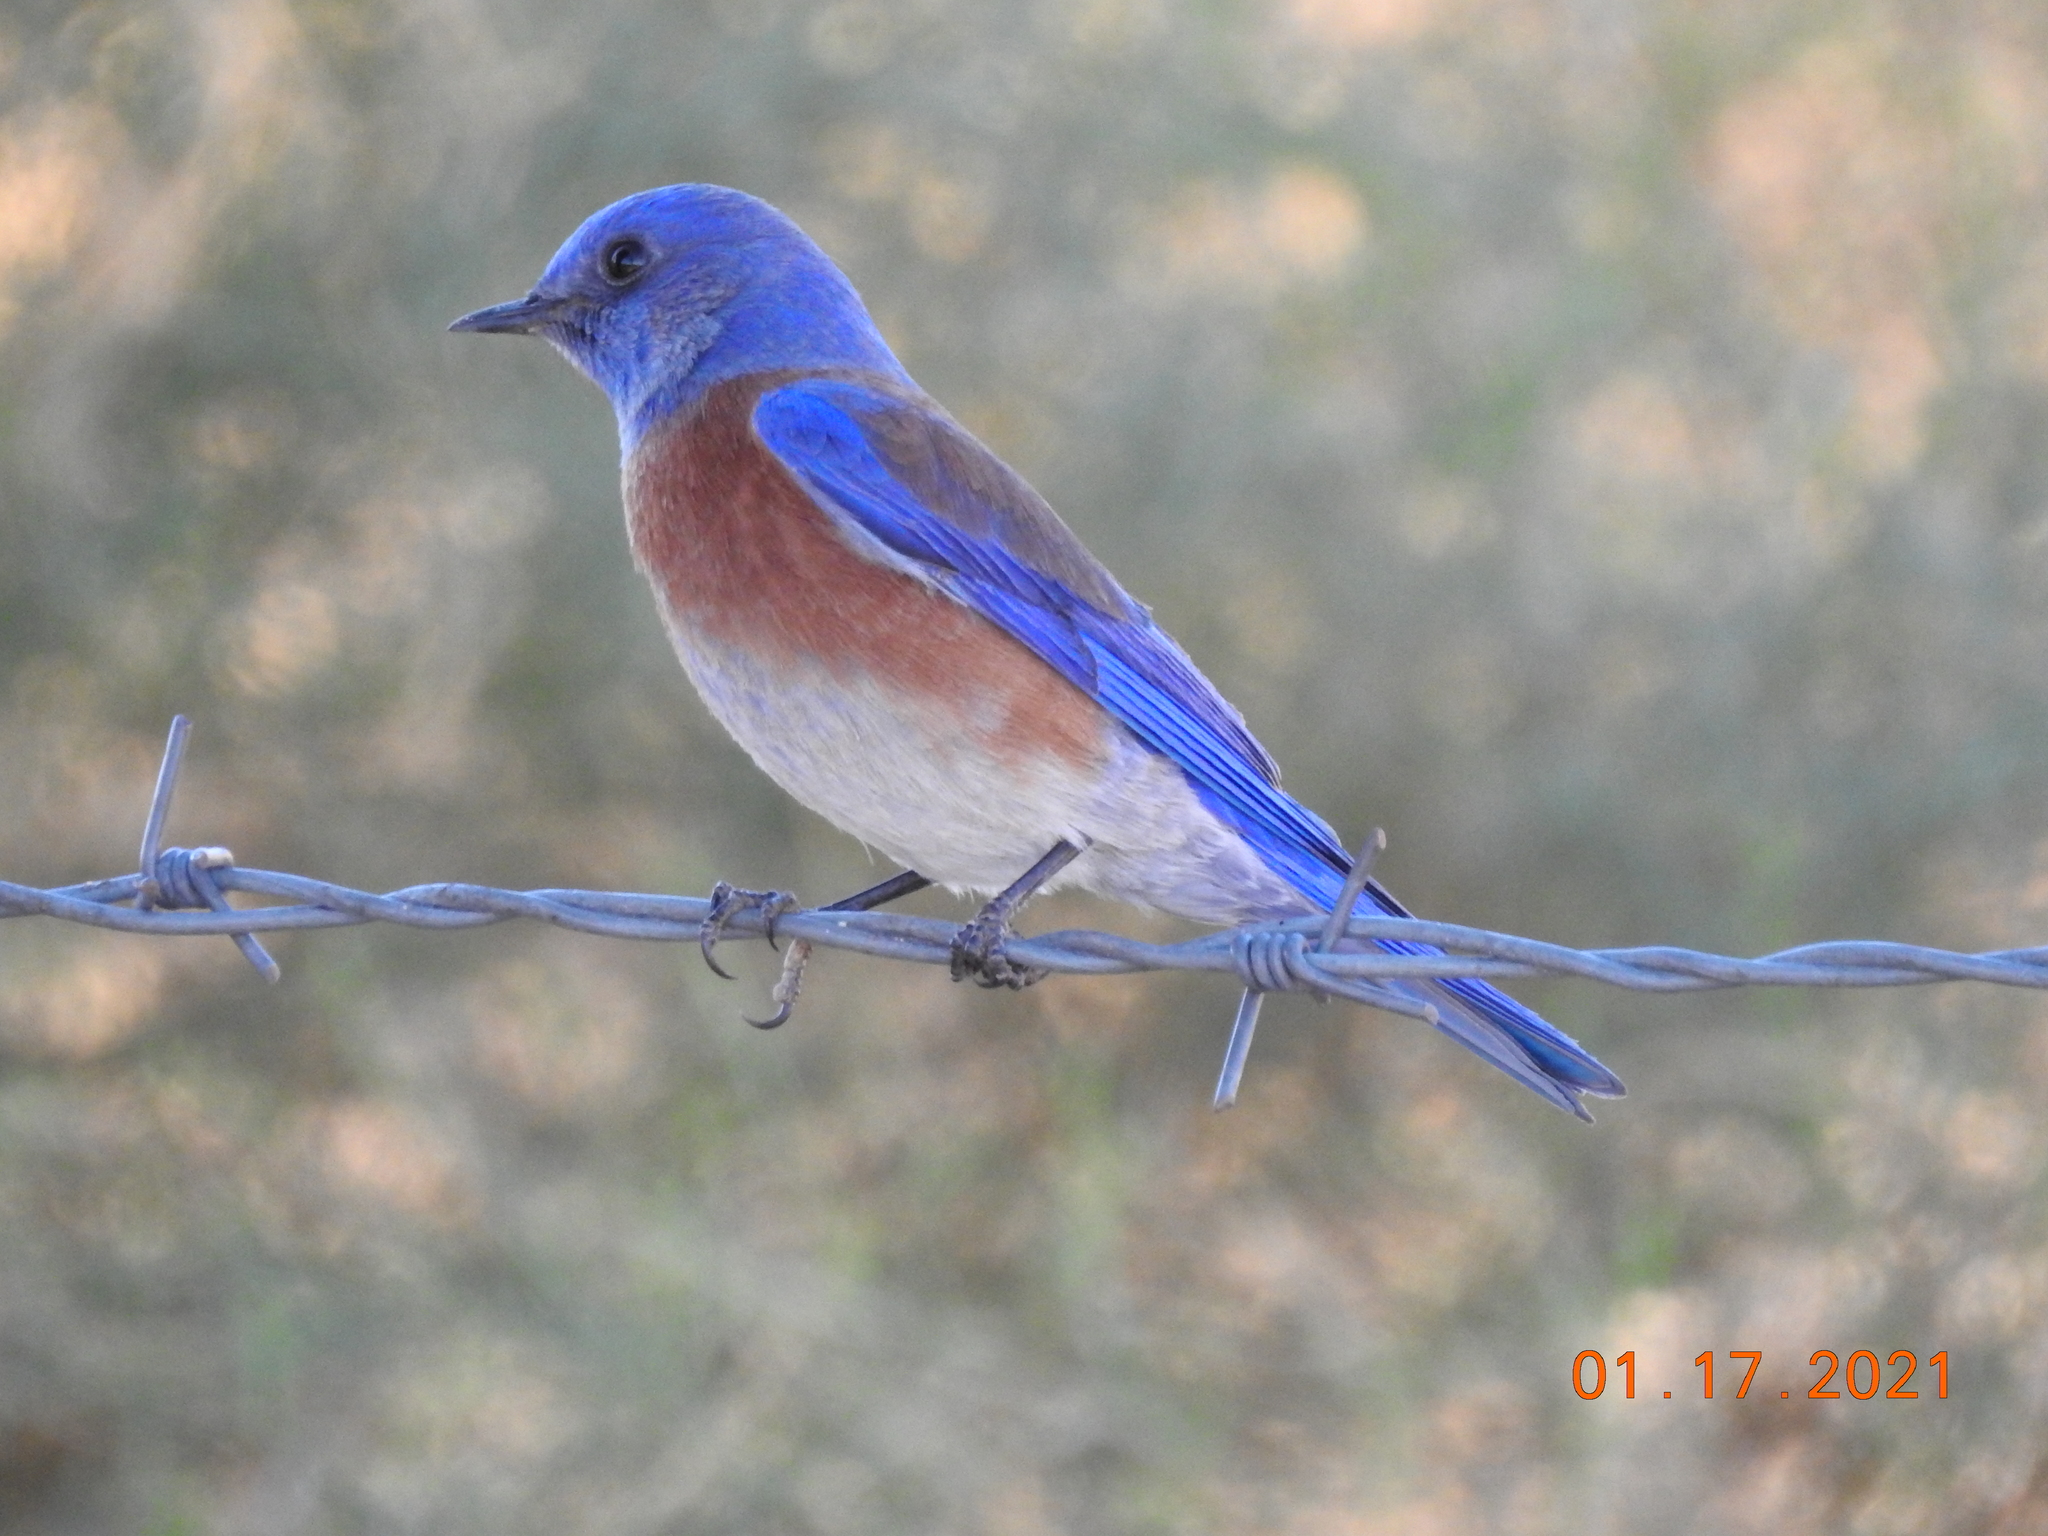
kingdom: Animalia
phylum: Chordata
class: Aves
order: Passeriformes
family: Turdidae
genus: Sialia
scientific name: Sialia mexicana
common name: Western bluebird
